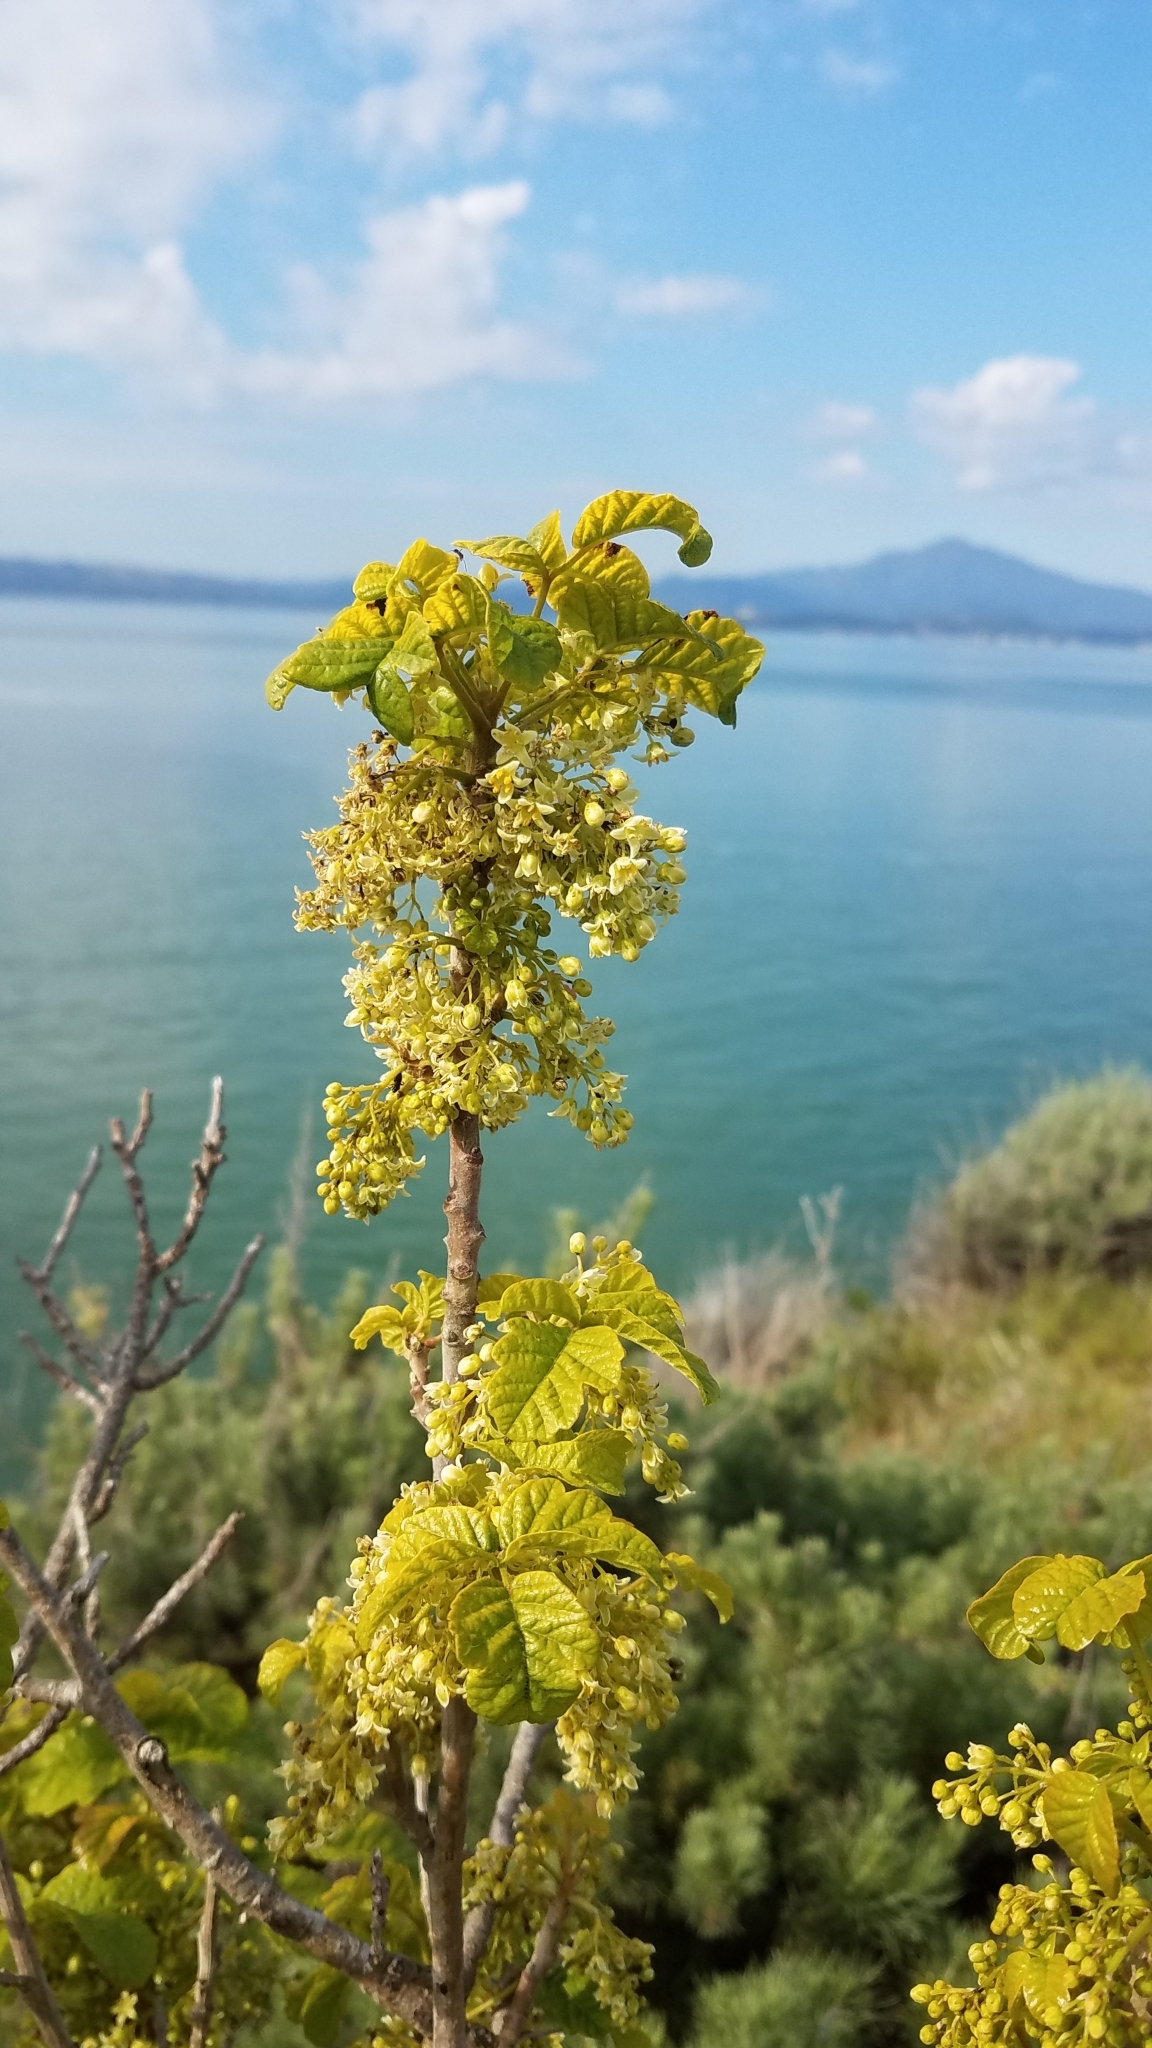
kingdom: Plantae
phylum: Tracheophyta
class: Magnoliopsida
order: Sapindales
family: Anacardiaceae
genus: Toxicodendron
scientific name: Toxicodendron diversilobum
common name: Pacific poison-oak
